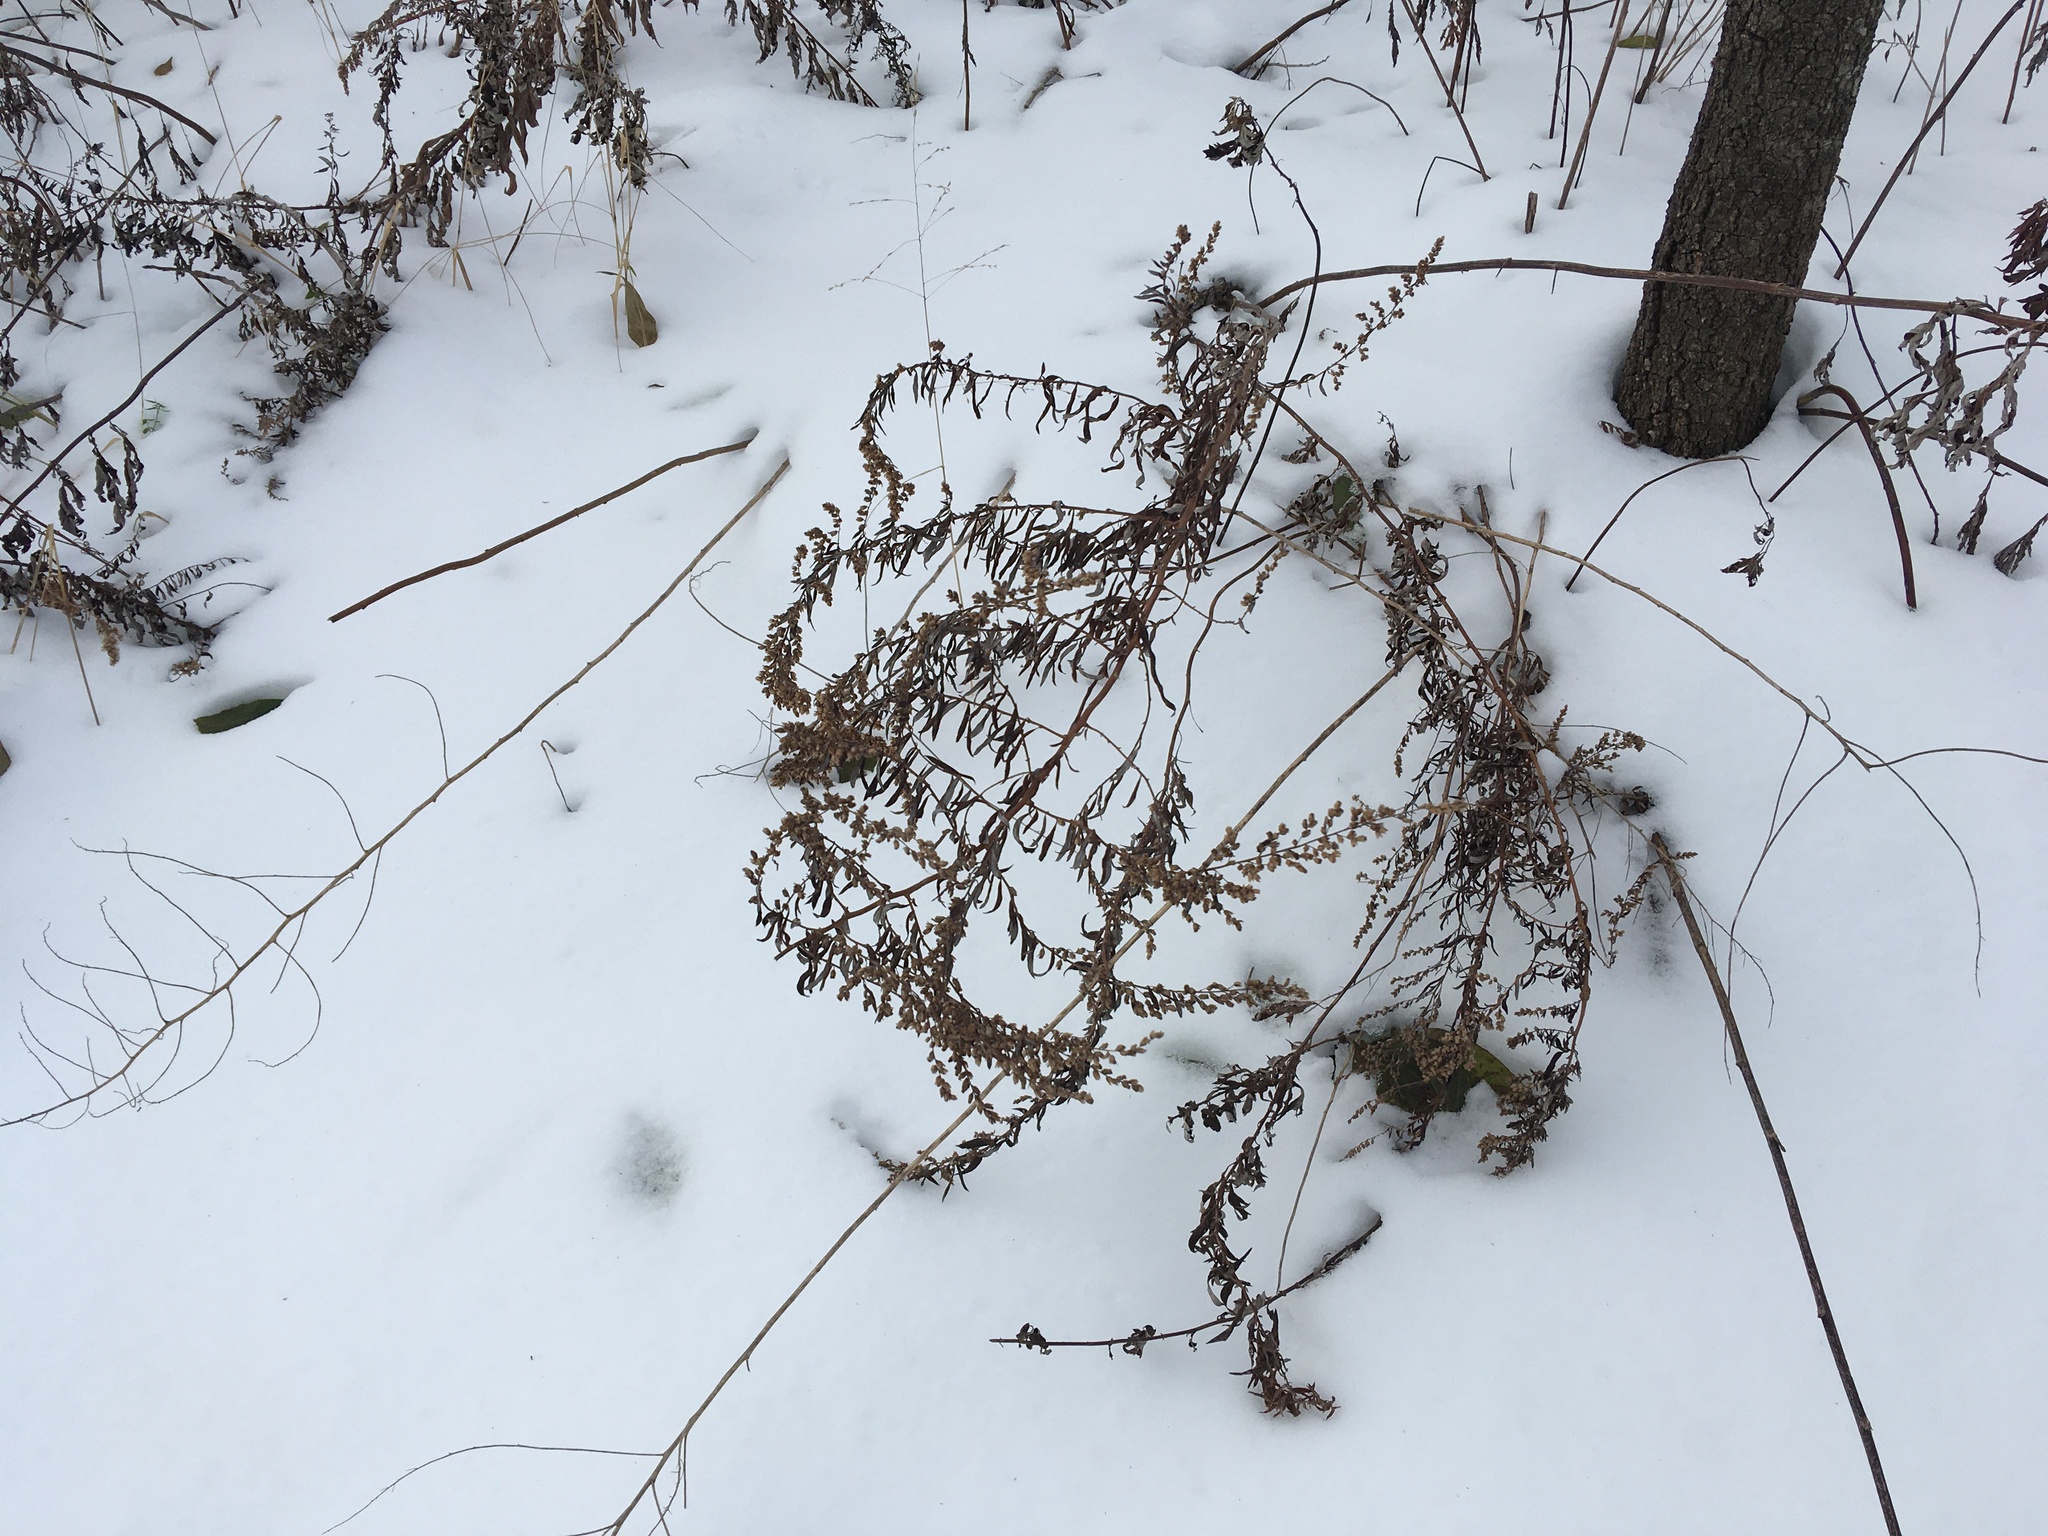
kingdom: Plantae
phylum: Tracheophyta
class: Magnoliopsida
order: Asterales
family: Asteraceae
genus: Artemisia
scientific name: Artemisia vulgaris
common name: Mugwort
